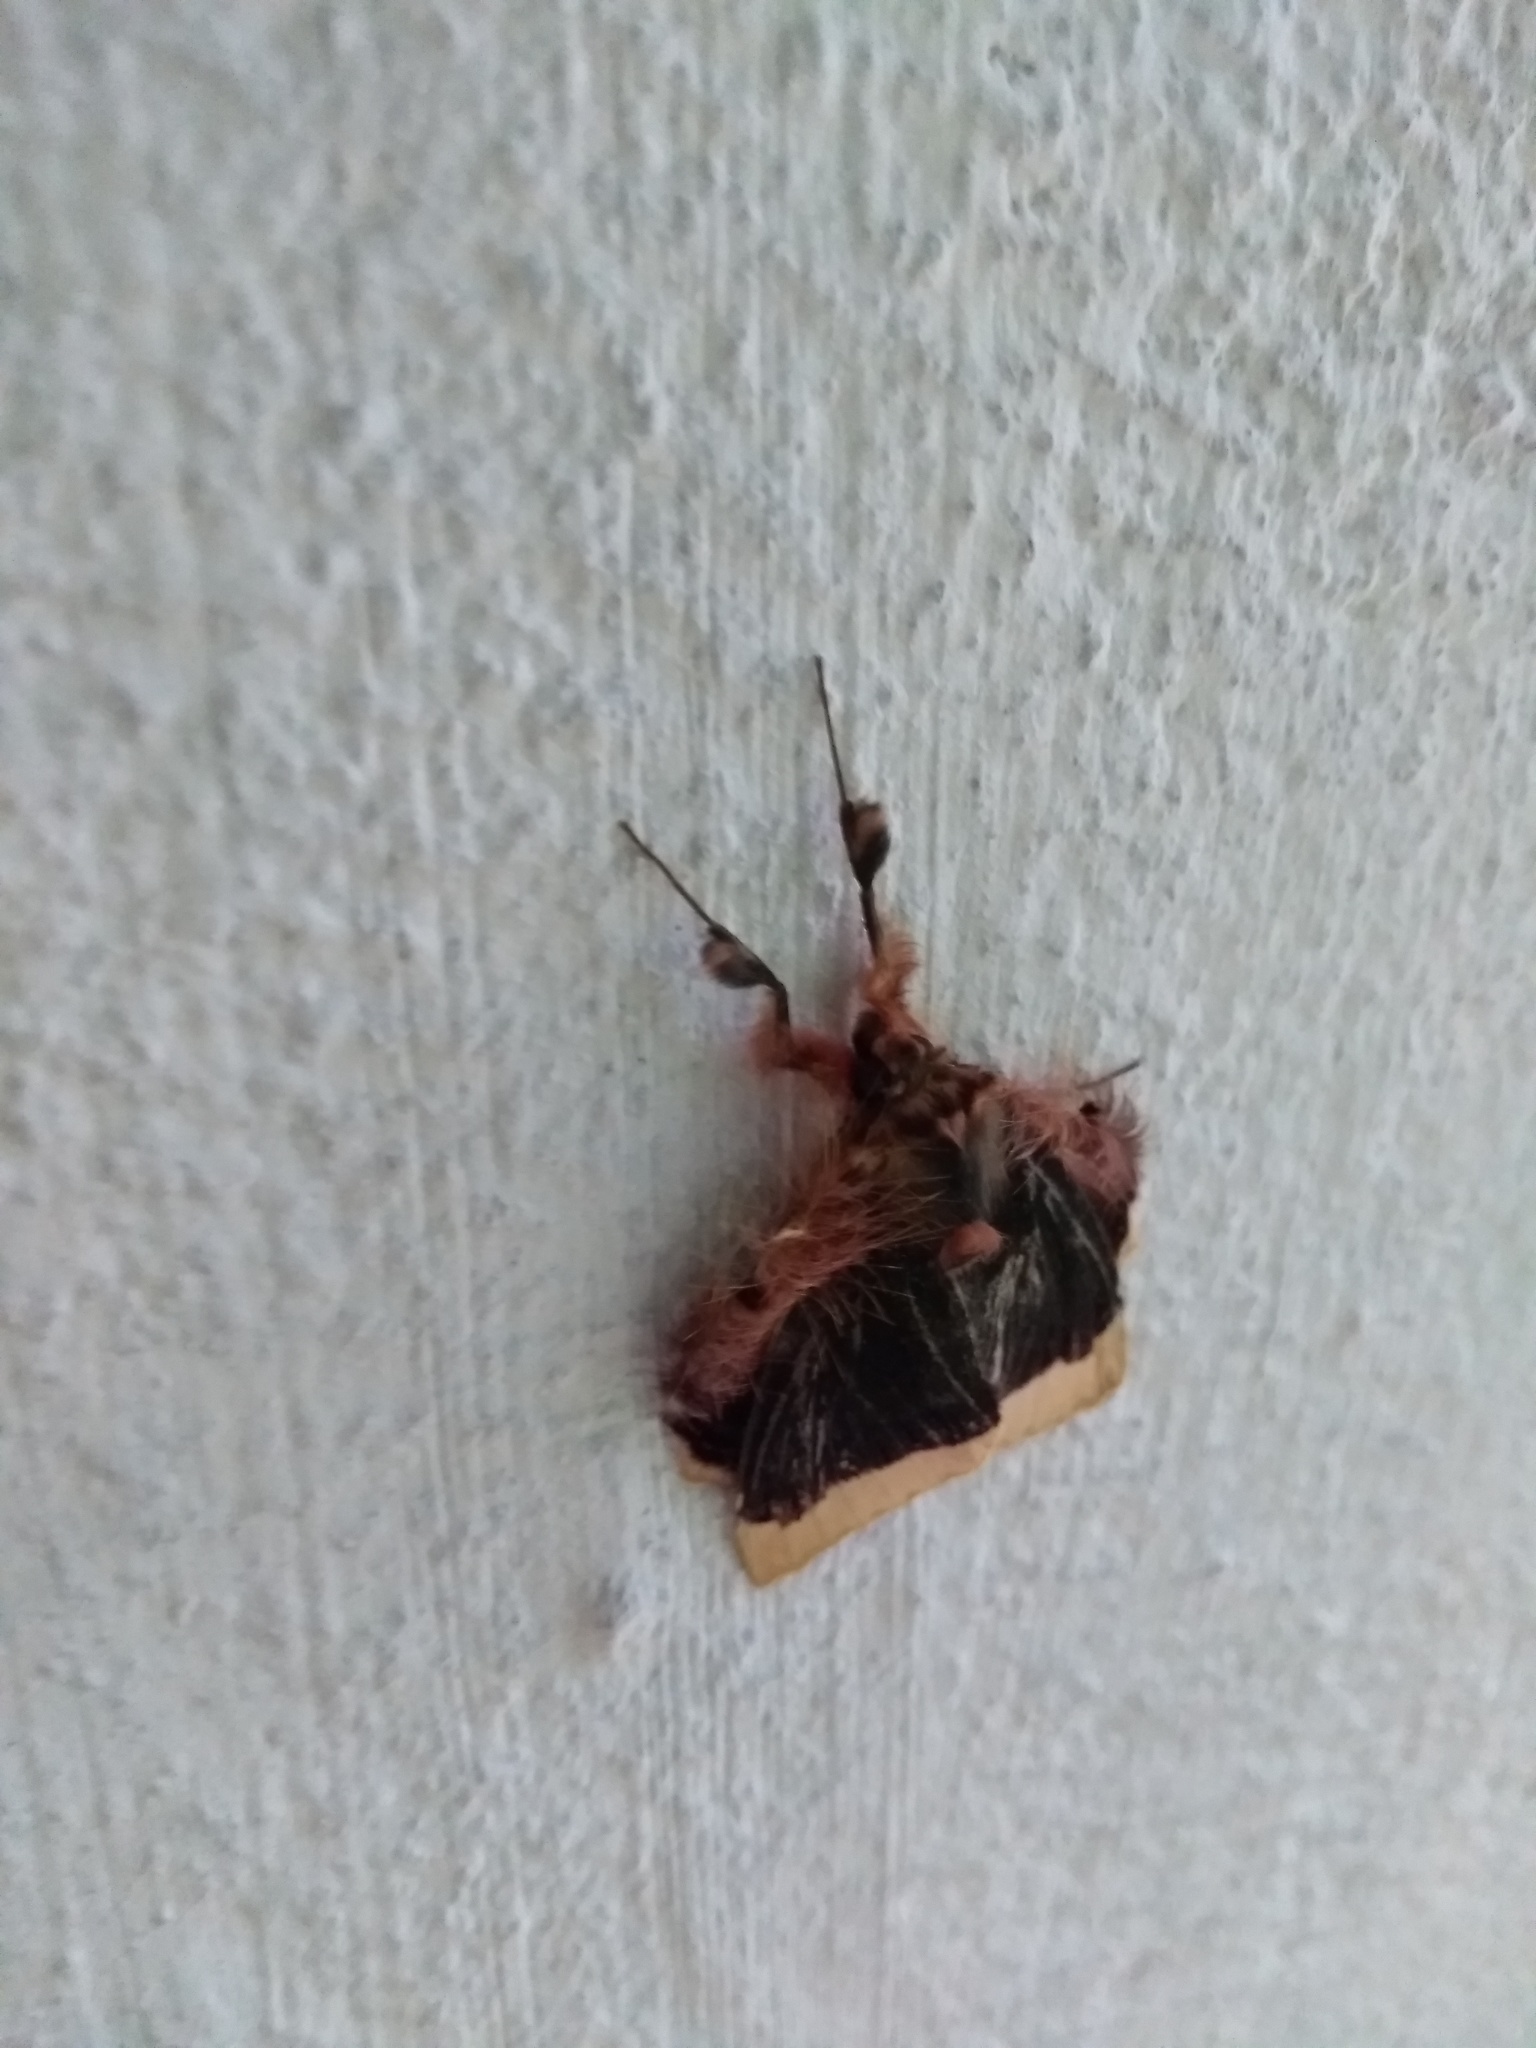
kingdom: Animalia
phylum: Arthropoda
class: Insecta
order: Lepidoptera
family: Erebidae
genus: Ceroctena
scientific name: Ceroctena amynta
